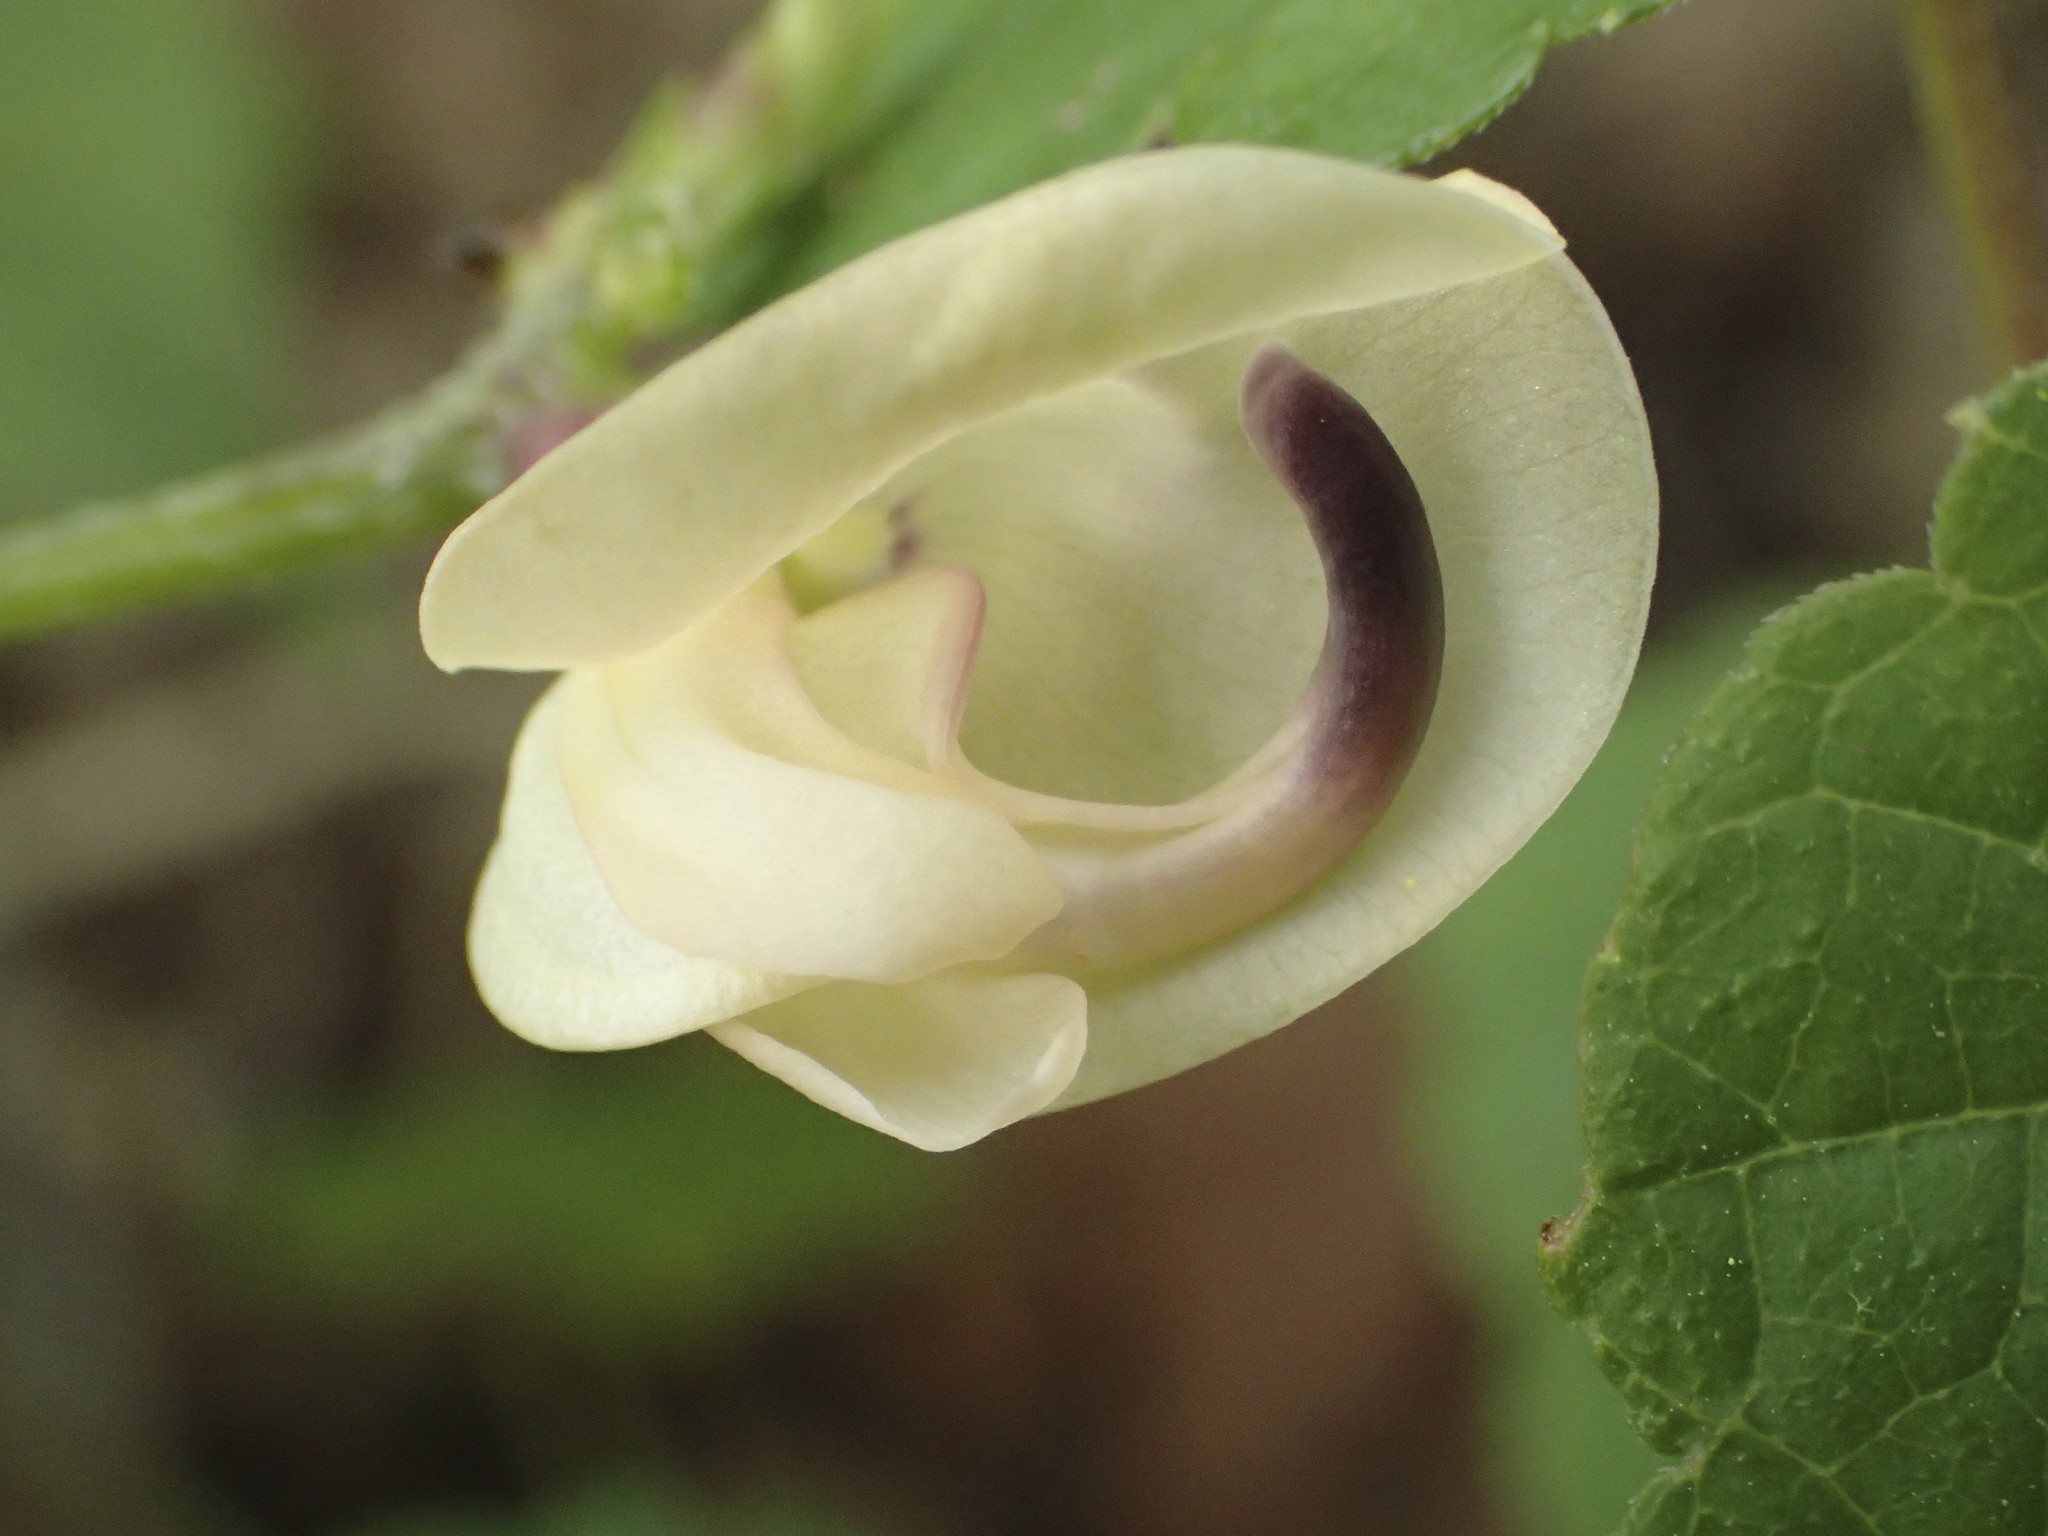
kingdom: Plantae
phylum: Tracheophyta
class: Magnoliopsida
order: Fabales
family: Fabaceae
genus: Strophostyles
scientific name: Strophostyles helvola
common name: Trailing wild bean
